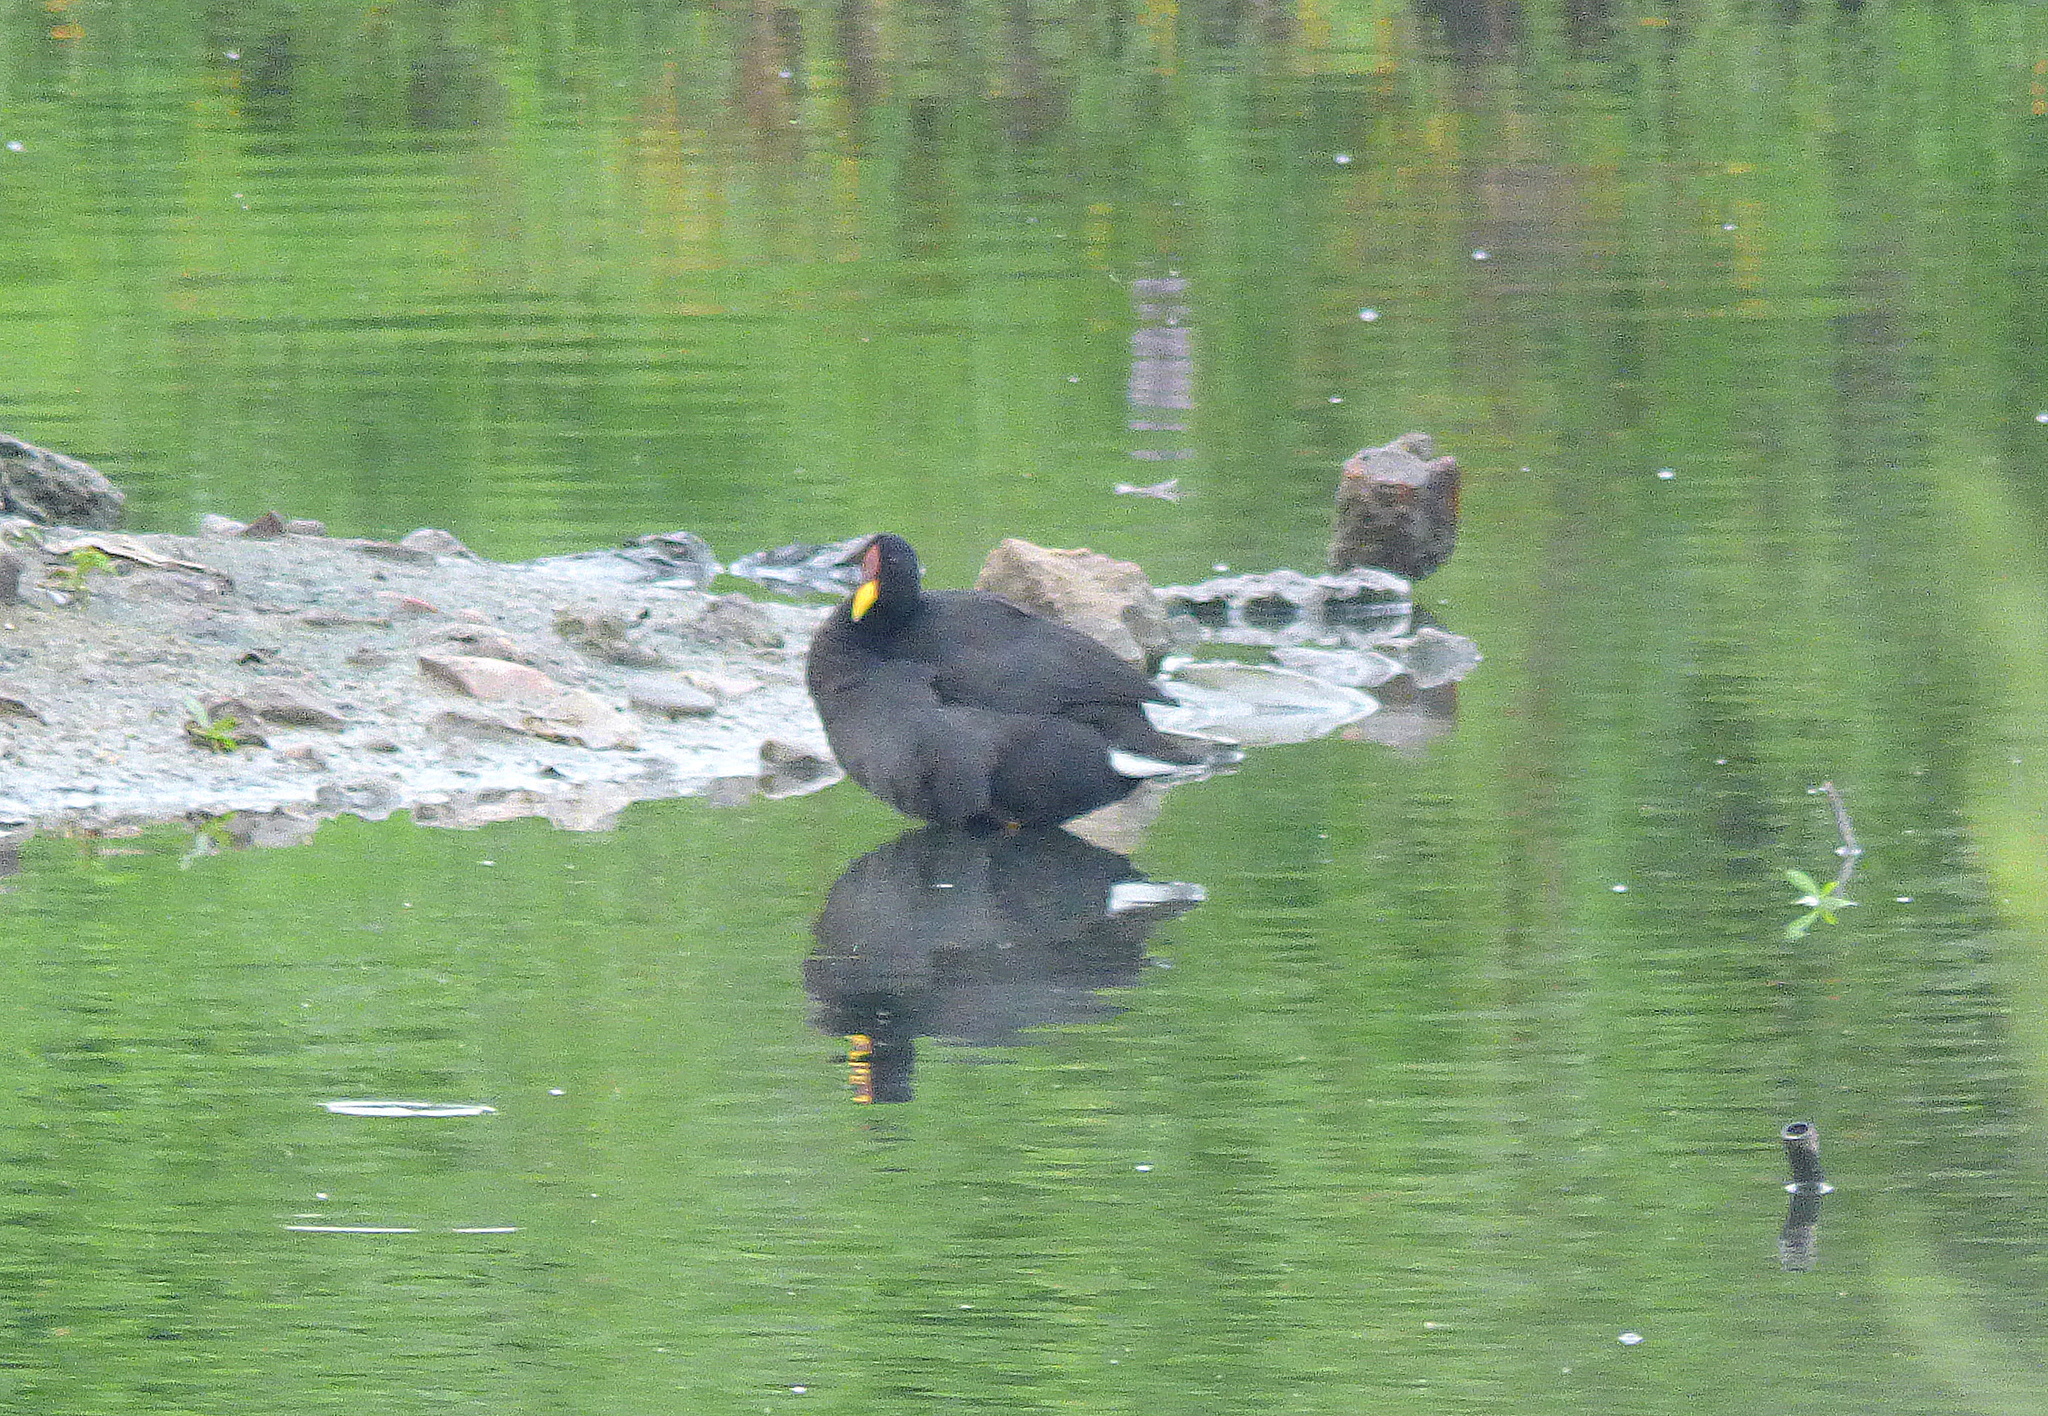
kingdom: Animalia
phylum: Chordata
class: Aves
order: Gruiformes
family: Rallidae
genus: Fulica
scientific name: Fulica rufifrons
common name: Red-fronted coot
